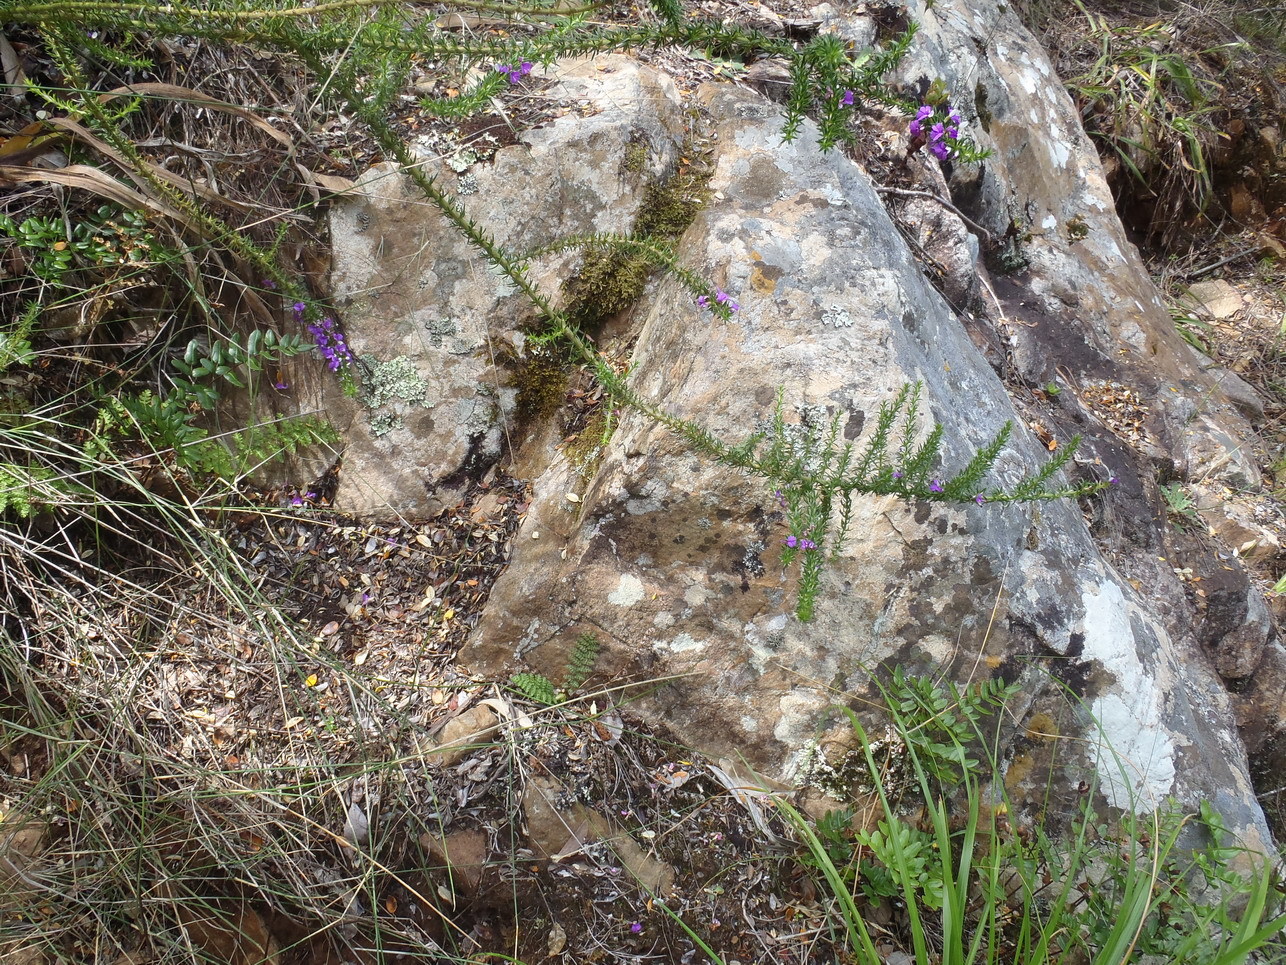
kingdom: Plantae
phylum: Tracheophyta
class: Magnoliopsida
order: Fabales
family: Polygalaceae
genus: Muraltia
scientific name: Muraltia heisteria
